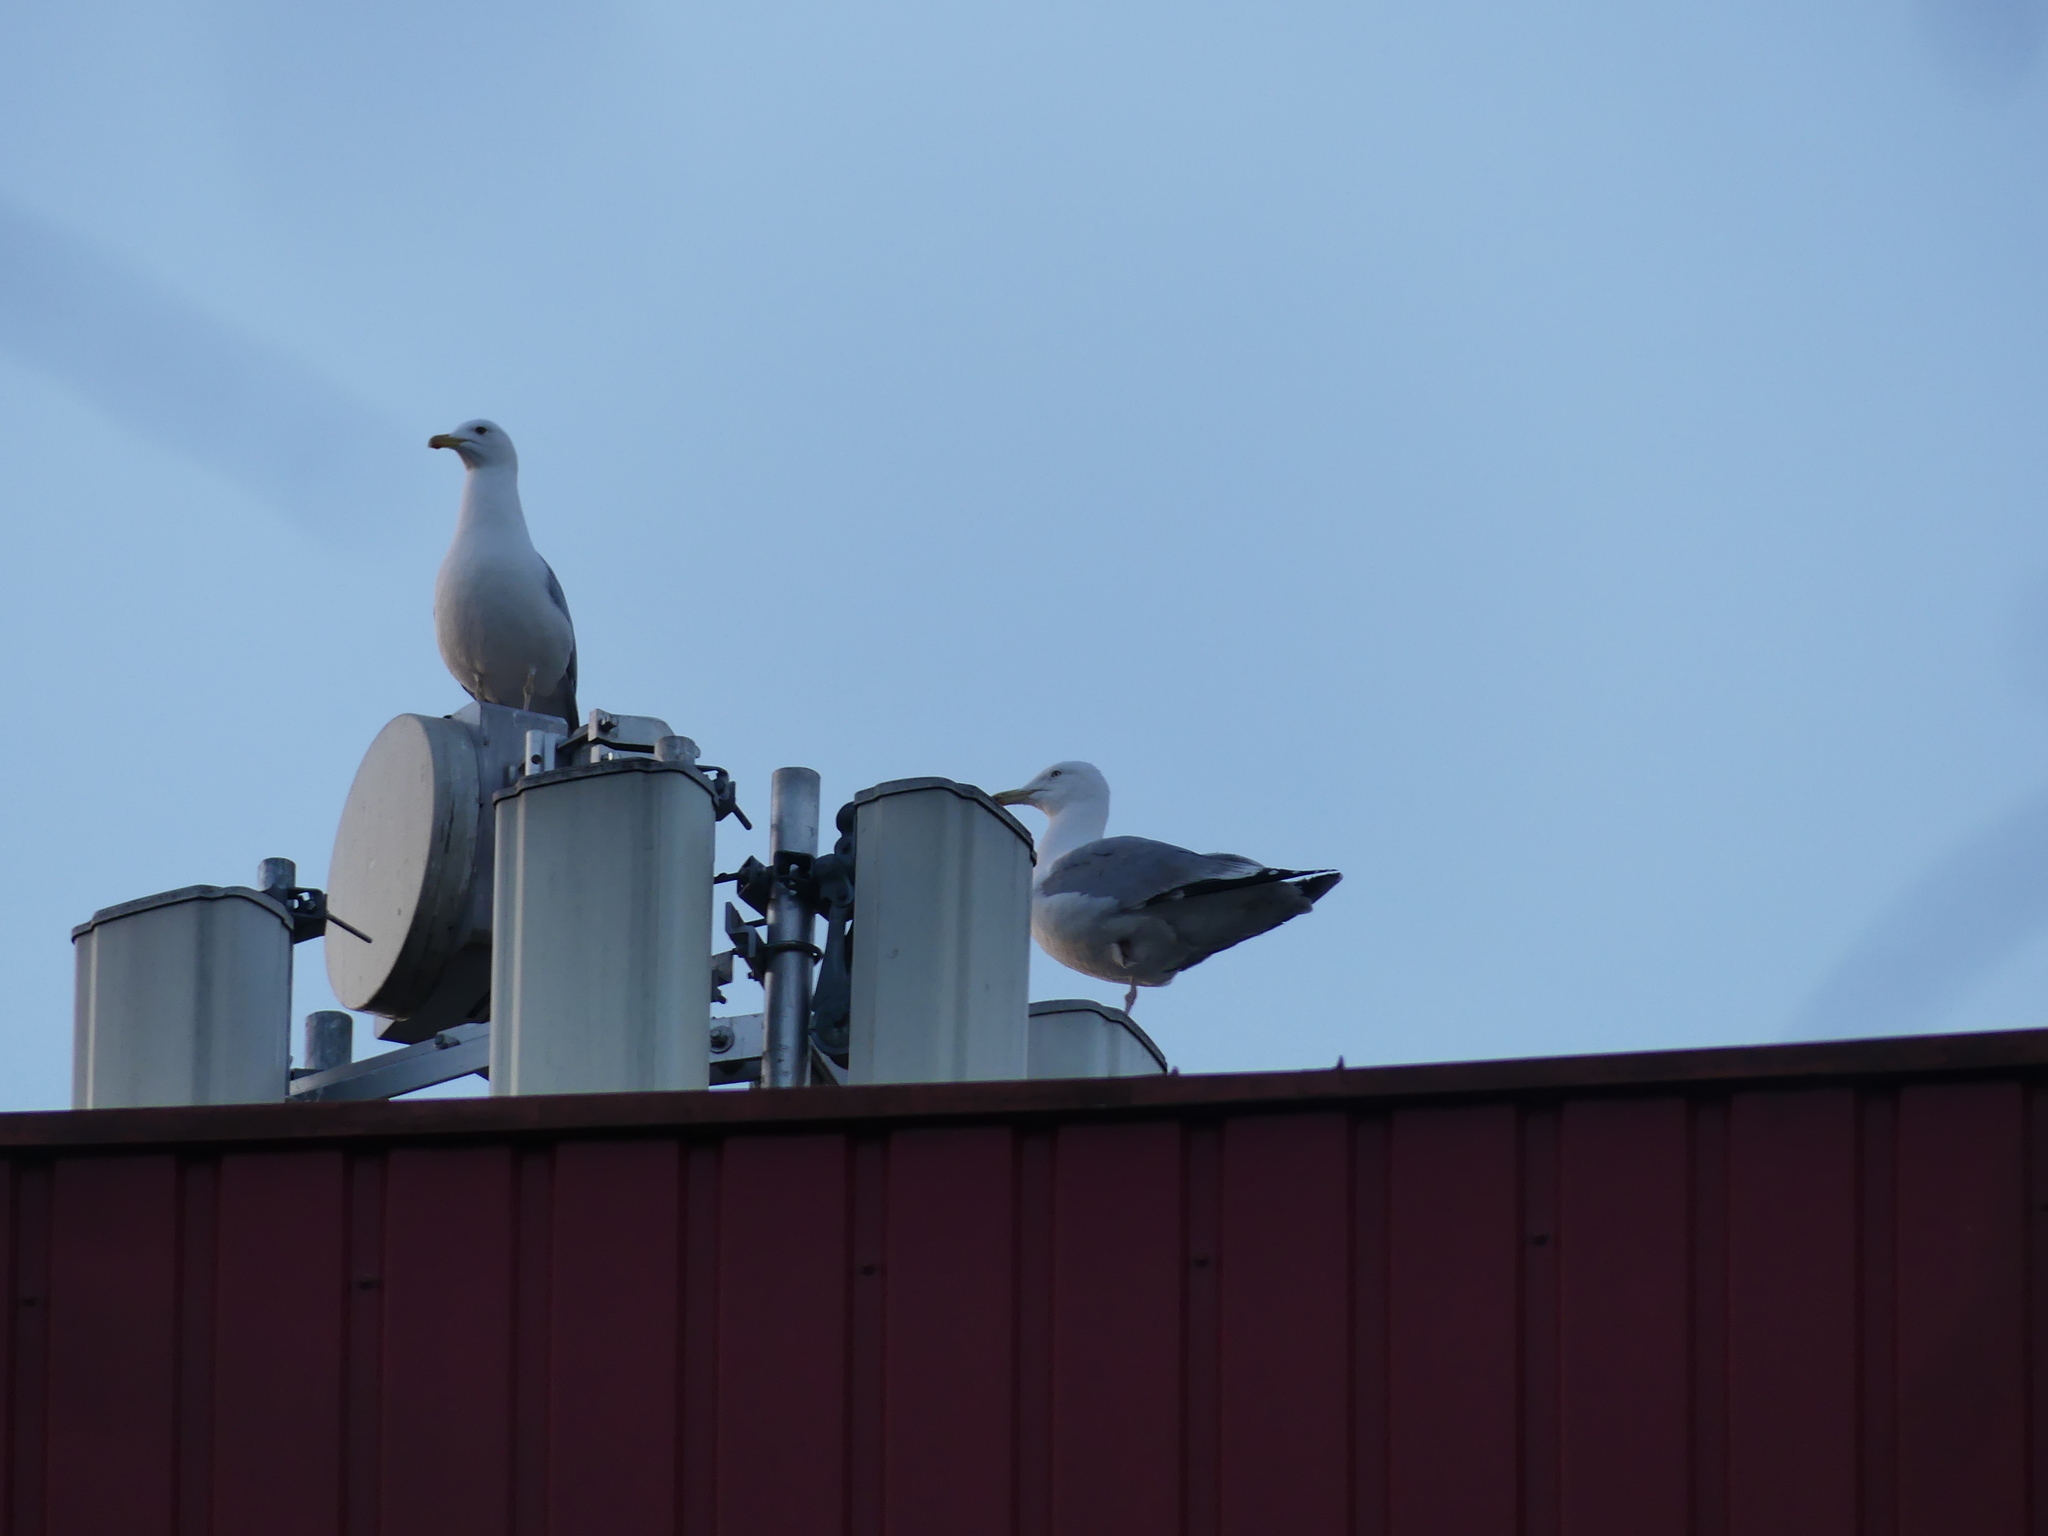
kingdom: Animalia
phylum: Chordata
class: Aves
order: Charadriiformes
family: Laridae
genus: Larus
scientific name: Larus argentatus
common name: Herring gull
